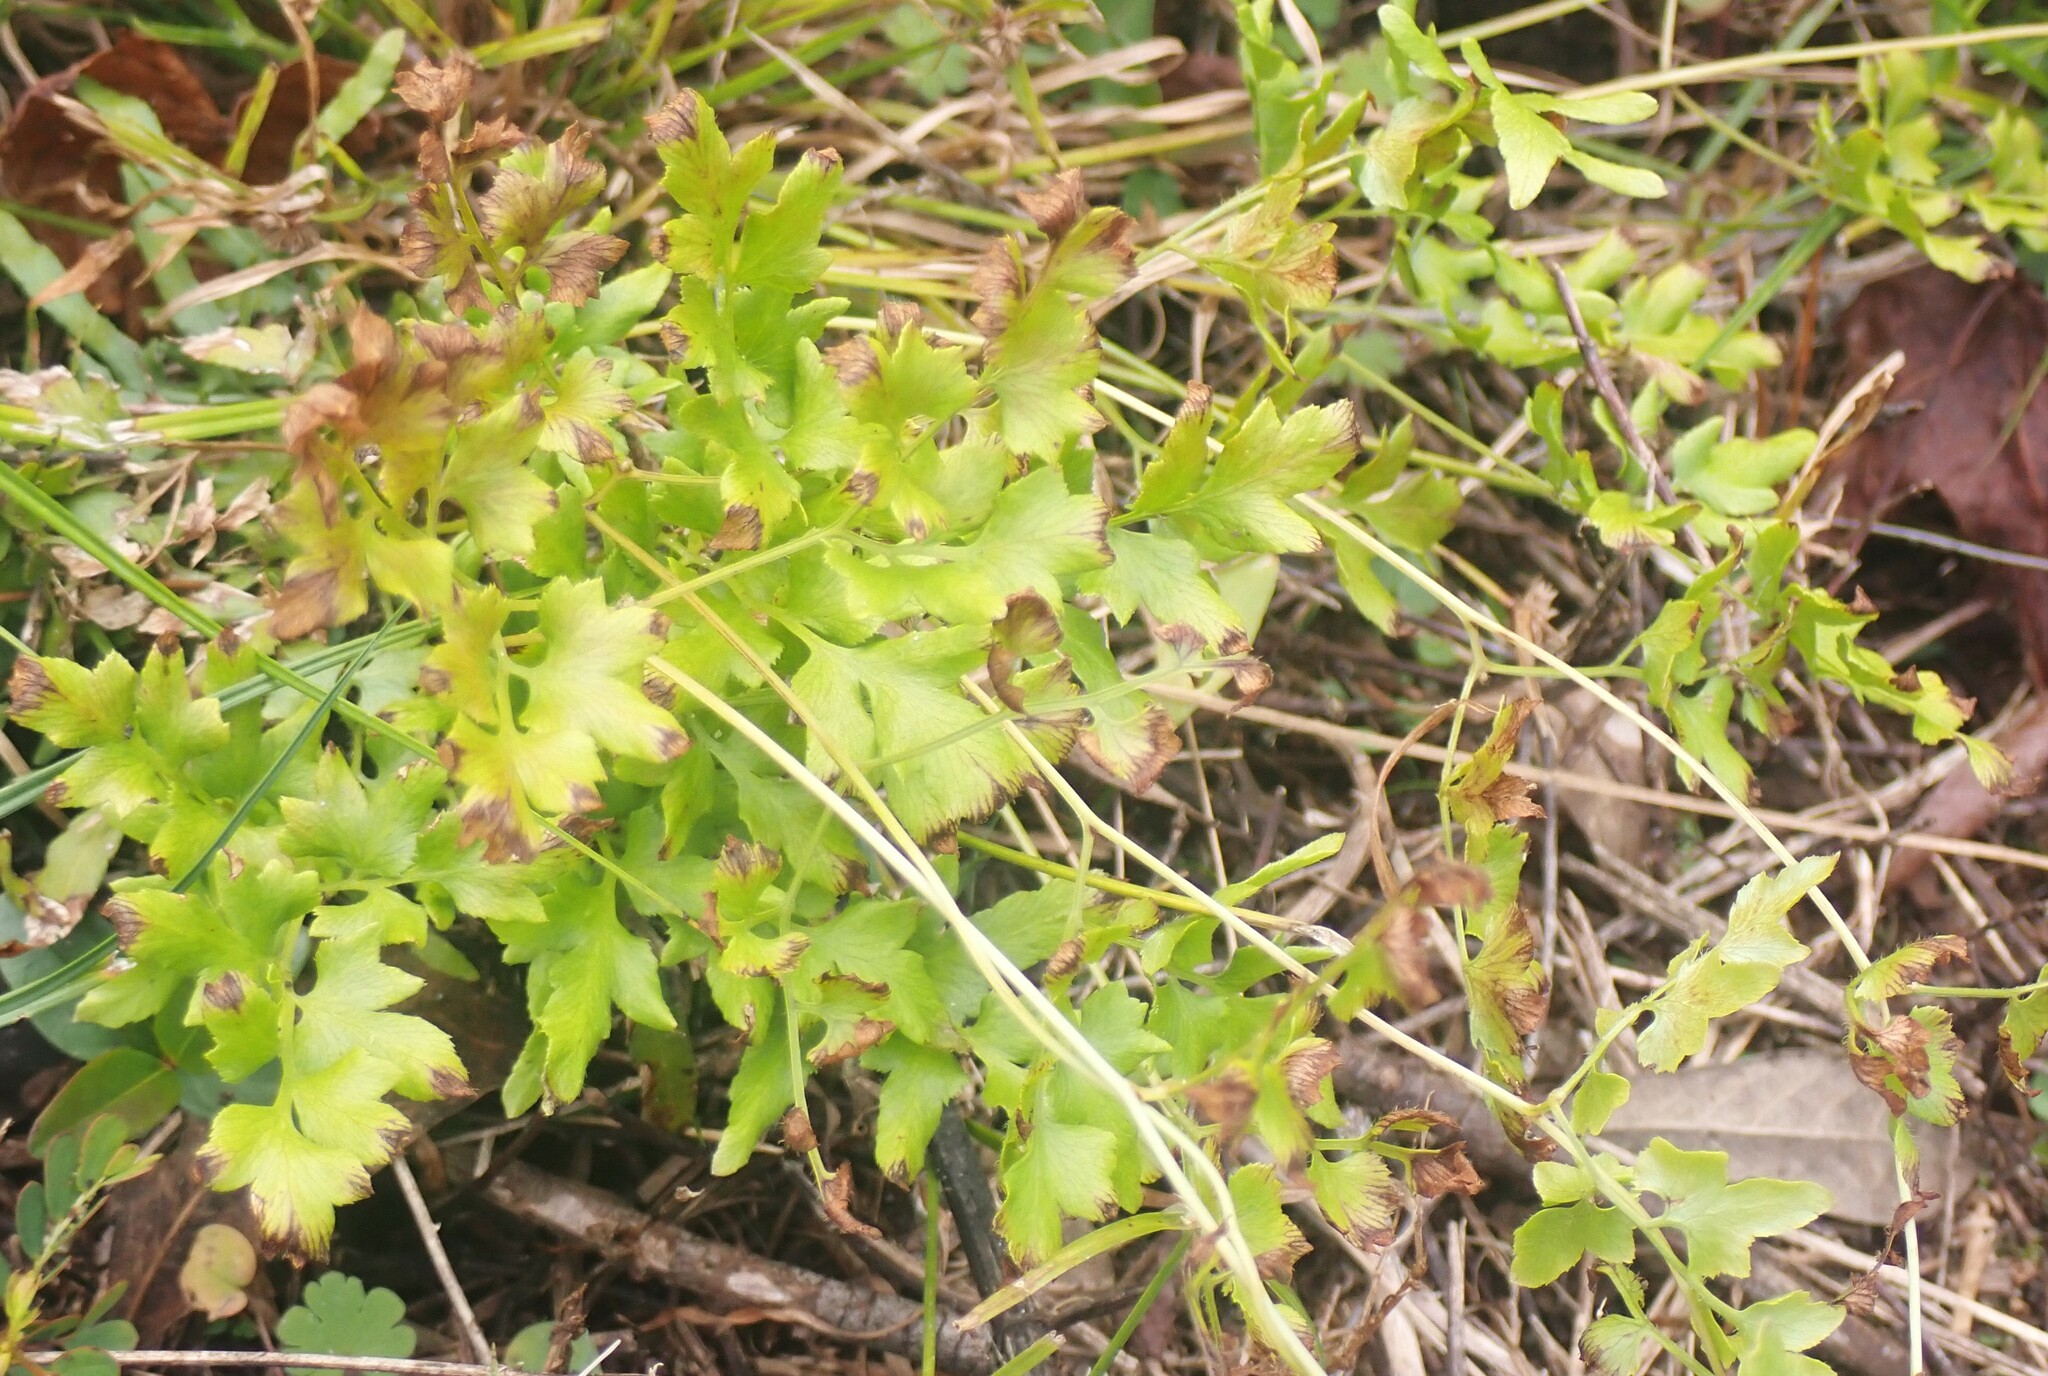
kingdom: Plantae
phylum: Tracheophyta
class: Polypodiopsida
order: Schizaeales
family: Lygodiaceae
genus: Lygodium
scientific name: Lygodium japonicum
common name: Japanese climbing fern
